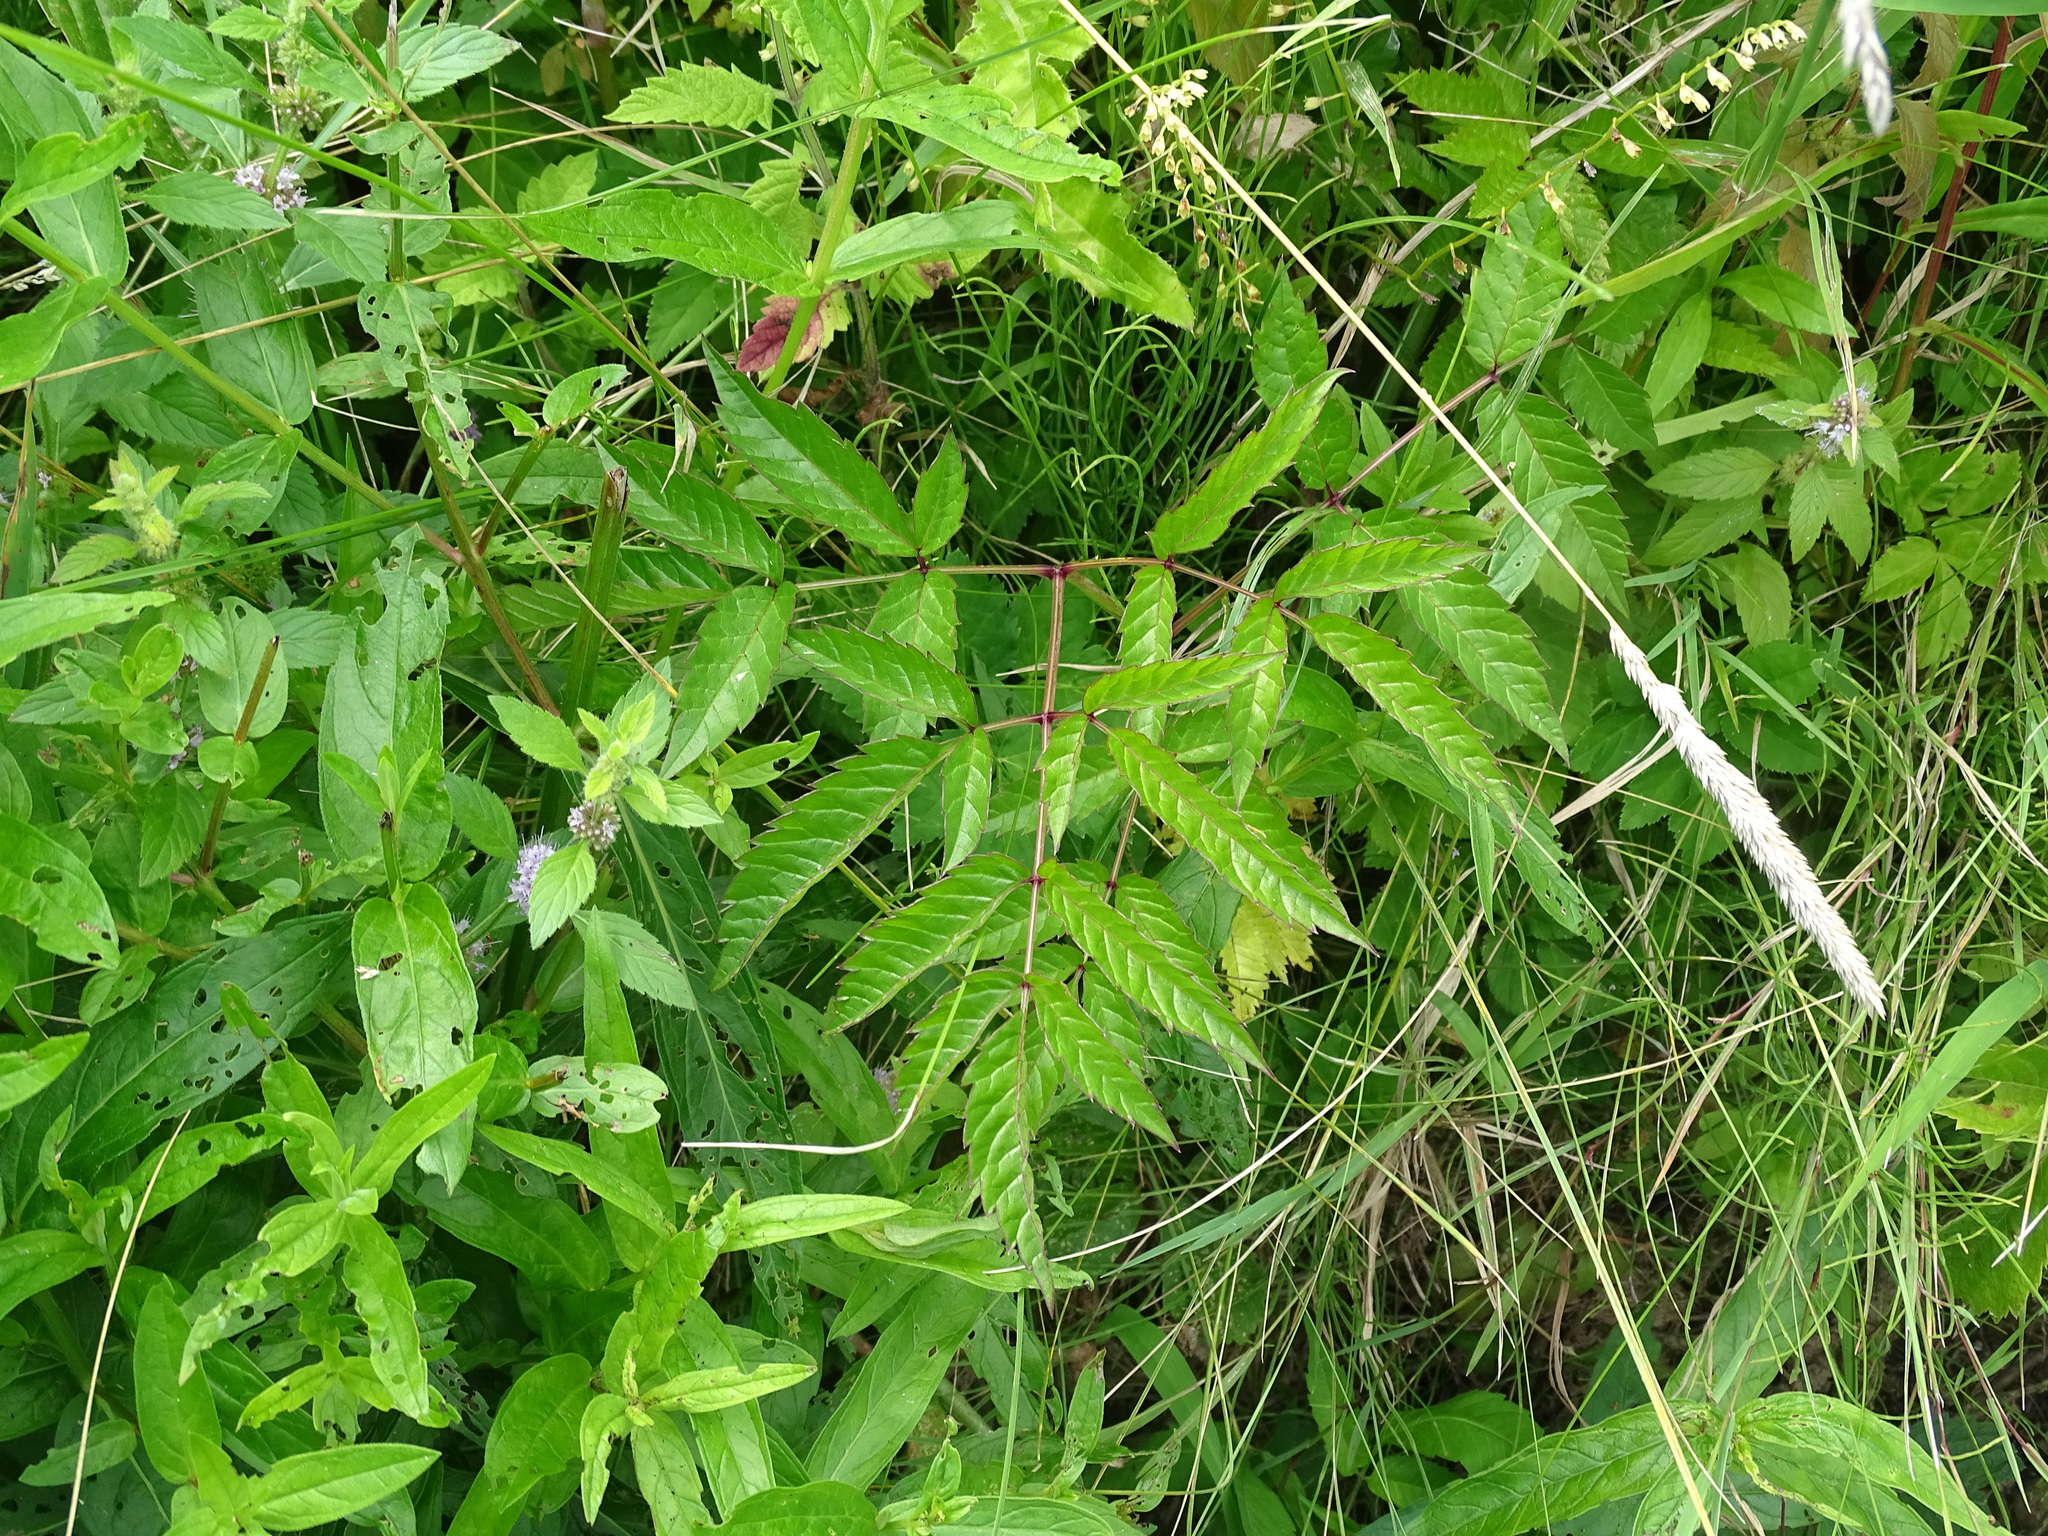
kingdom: Plantae
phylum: Tracheophyta
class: Magnoliopsida
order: Apiales
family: Apiaceae
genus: Cicuta
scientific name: Cicuta maculata
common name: Spotted cowbane
